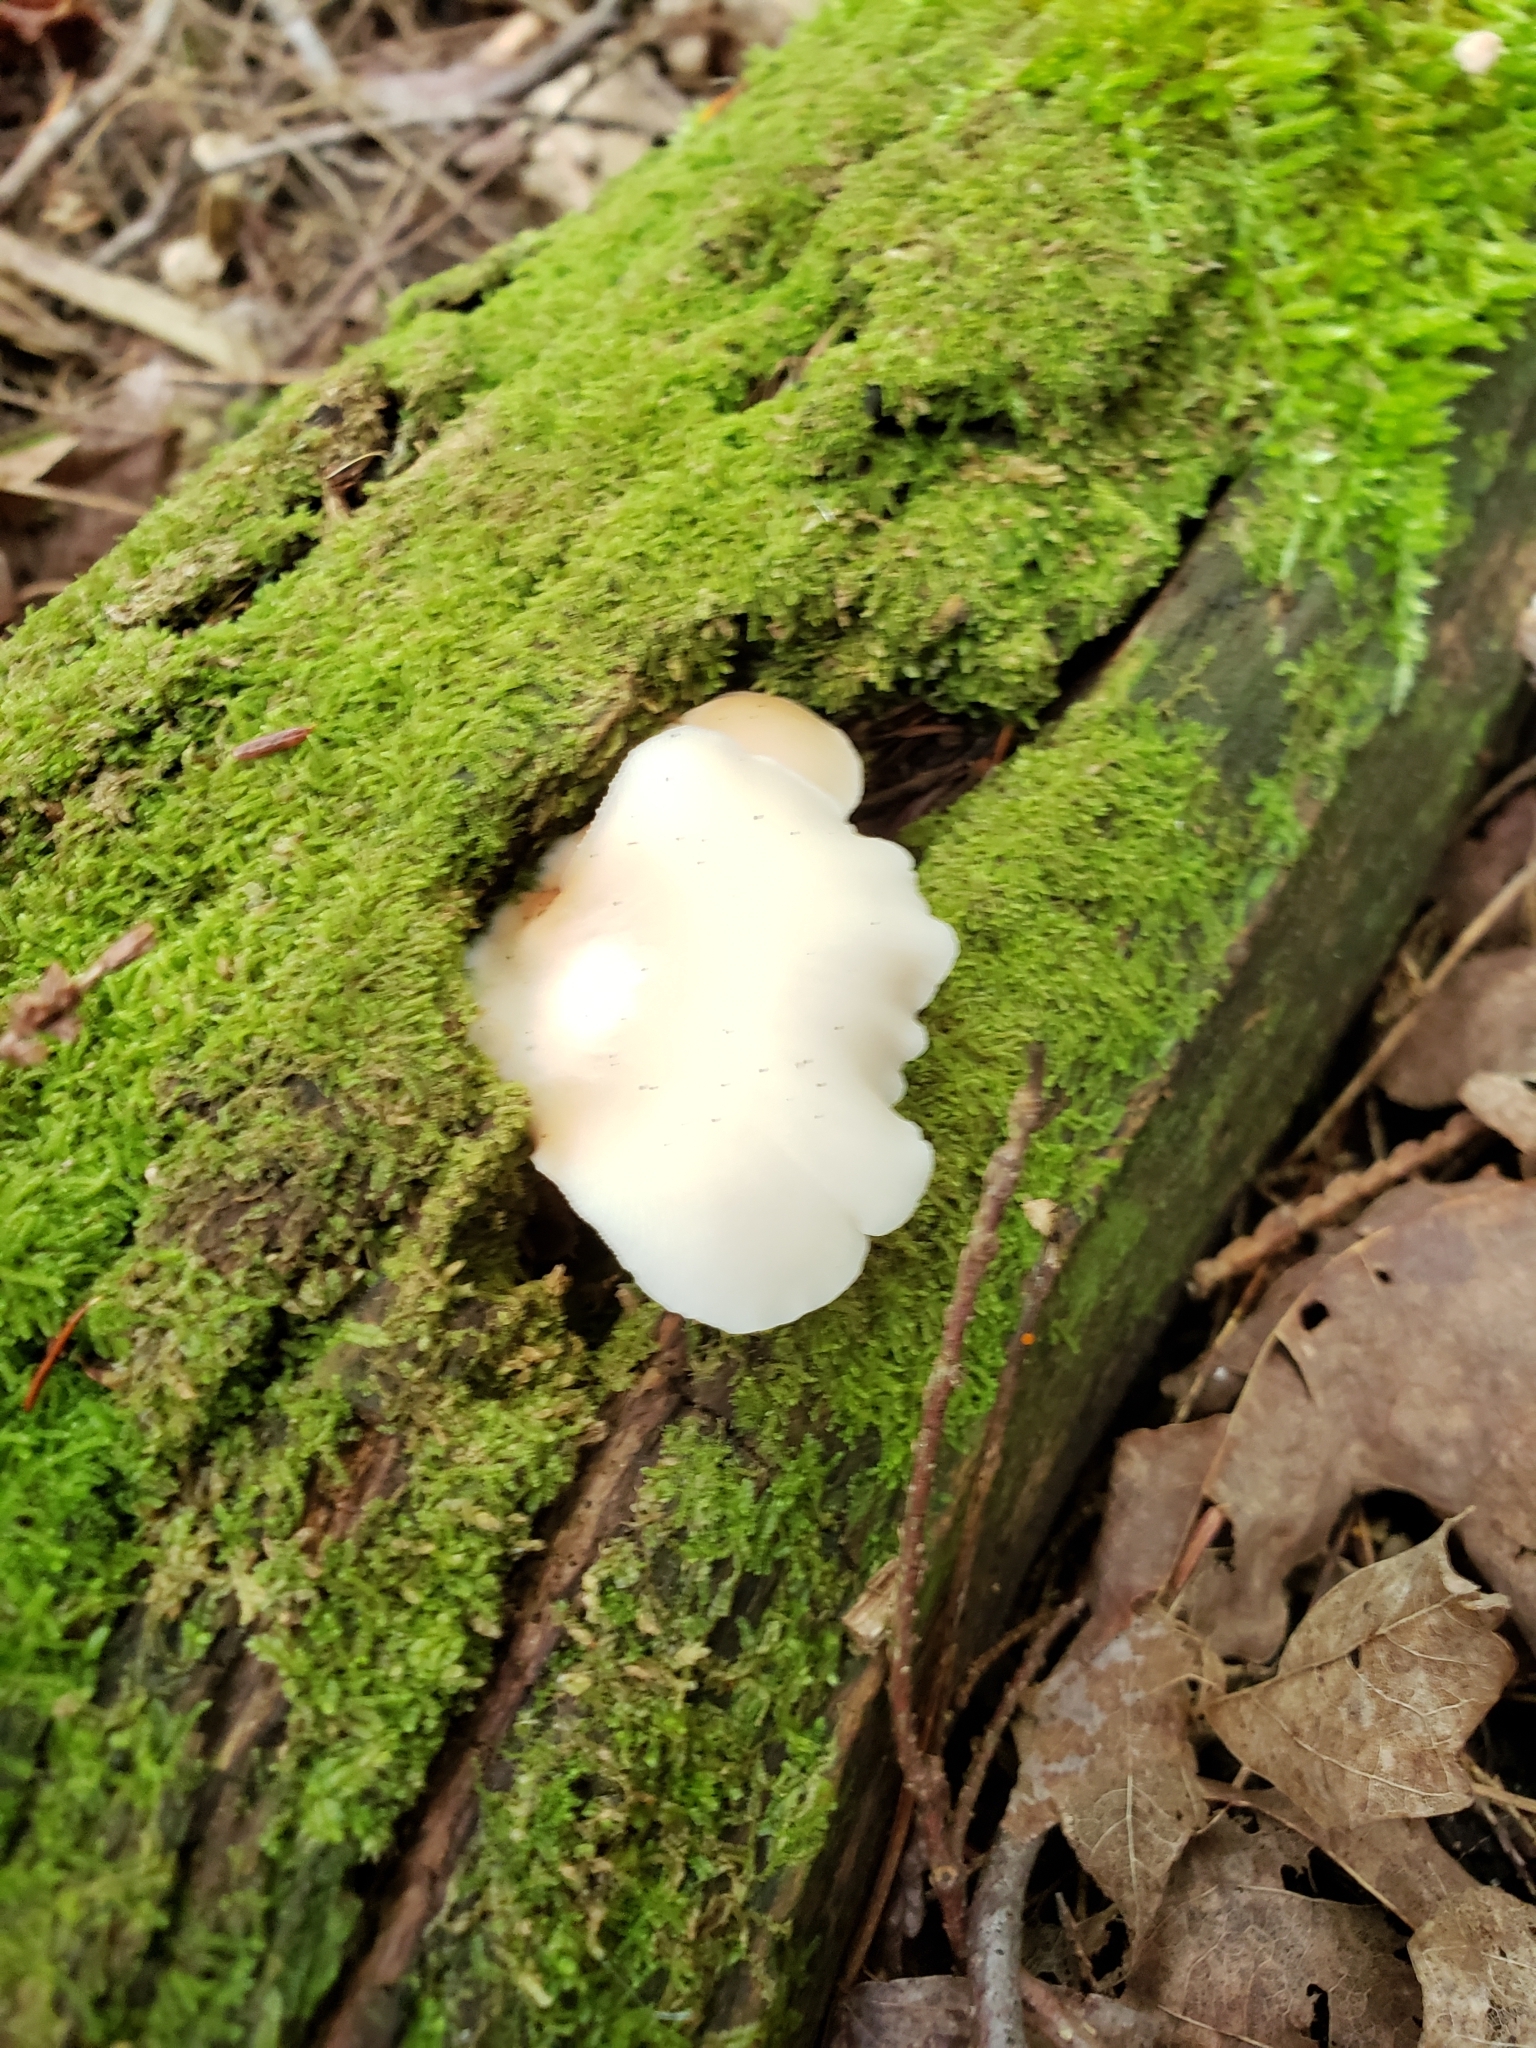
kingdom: Fungi
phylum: Basidiomycota
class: Agaricomycetes
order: Agaricales
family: Crepidotaceae
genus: Crepidotus
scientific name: Crepidotus applanatus
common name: Flat crep
